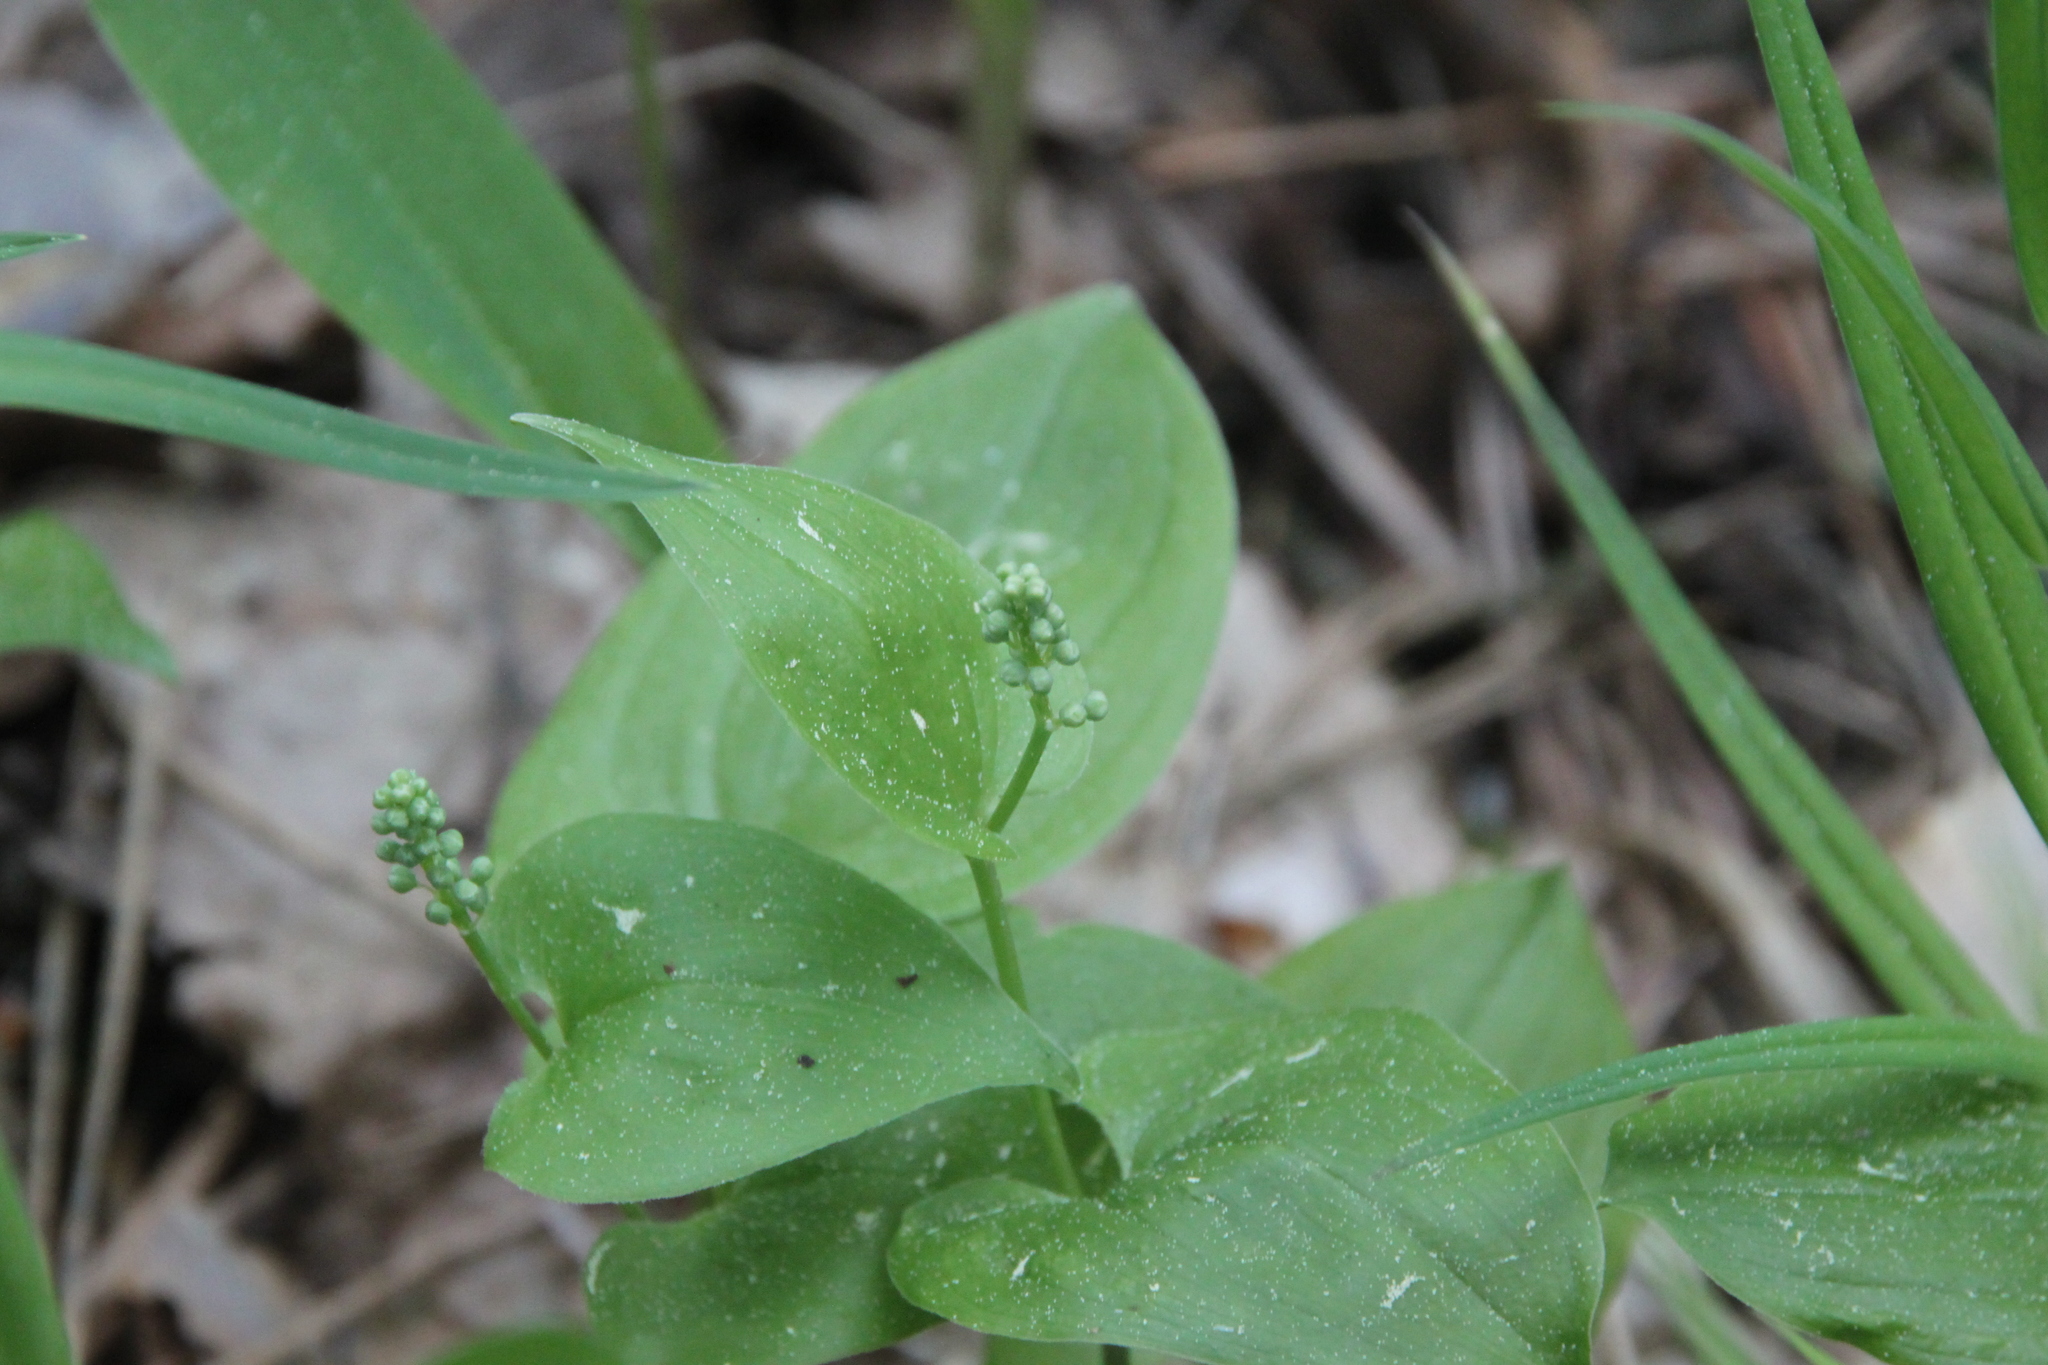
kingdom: Plantae
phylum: Tracheophyta
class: Liliopsida
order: Asparagales
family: Asparagaceae
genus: Maianthemum
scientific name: Maianthemum bifolium
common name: May lily
